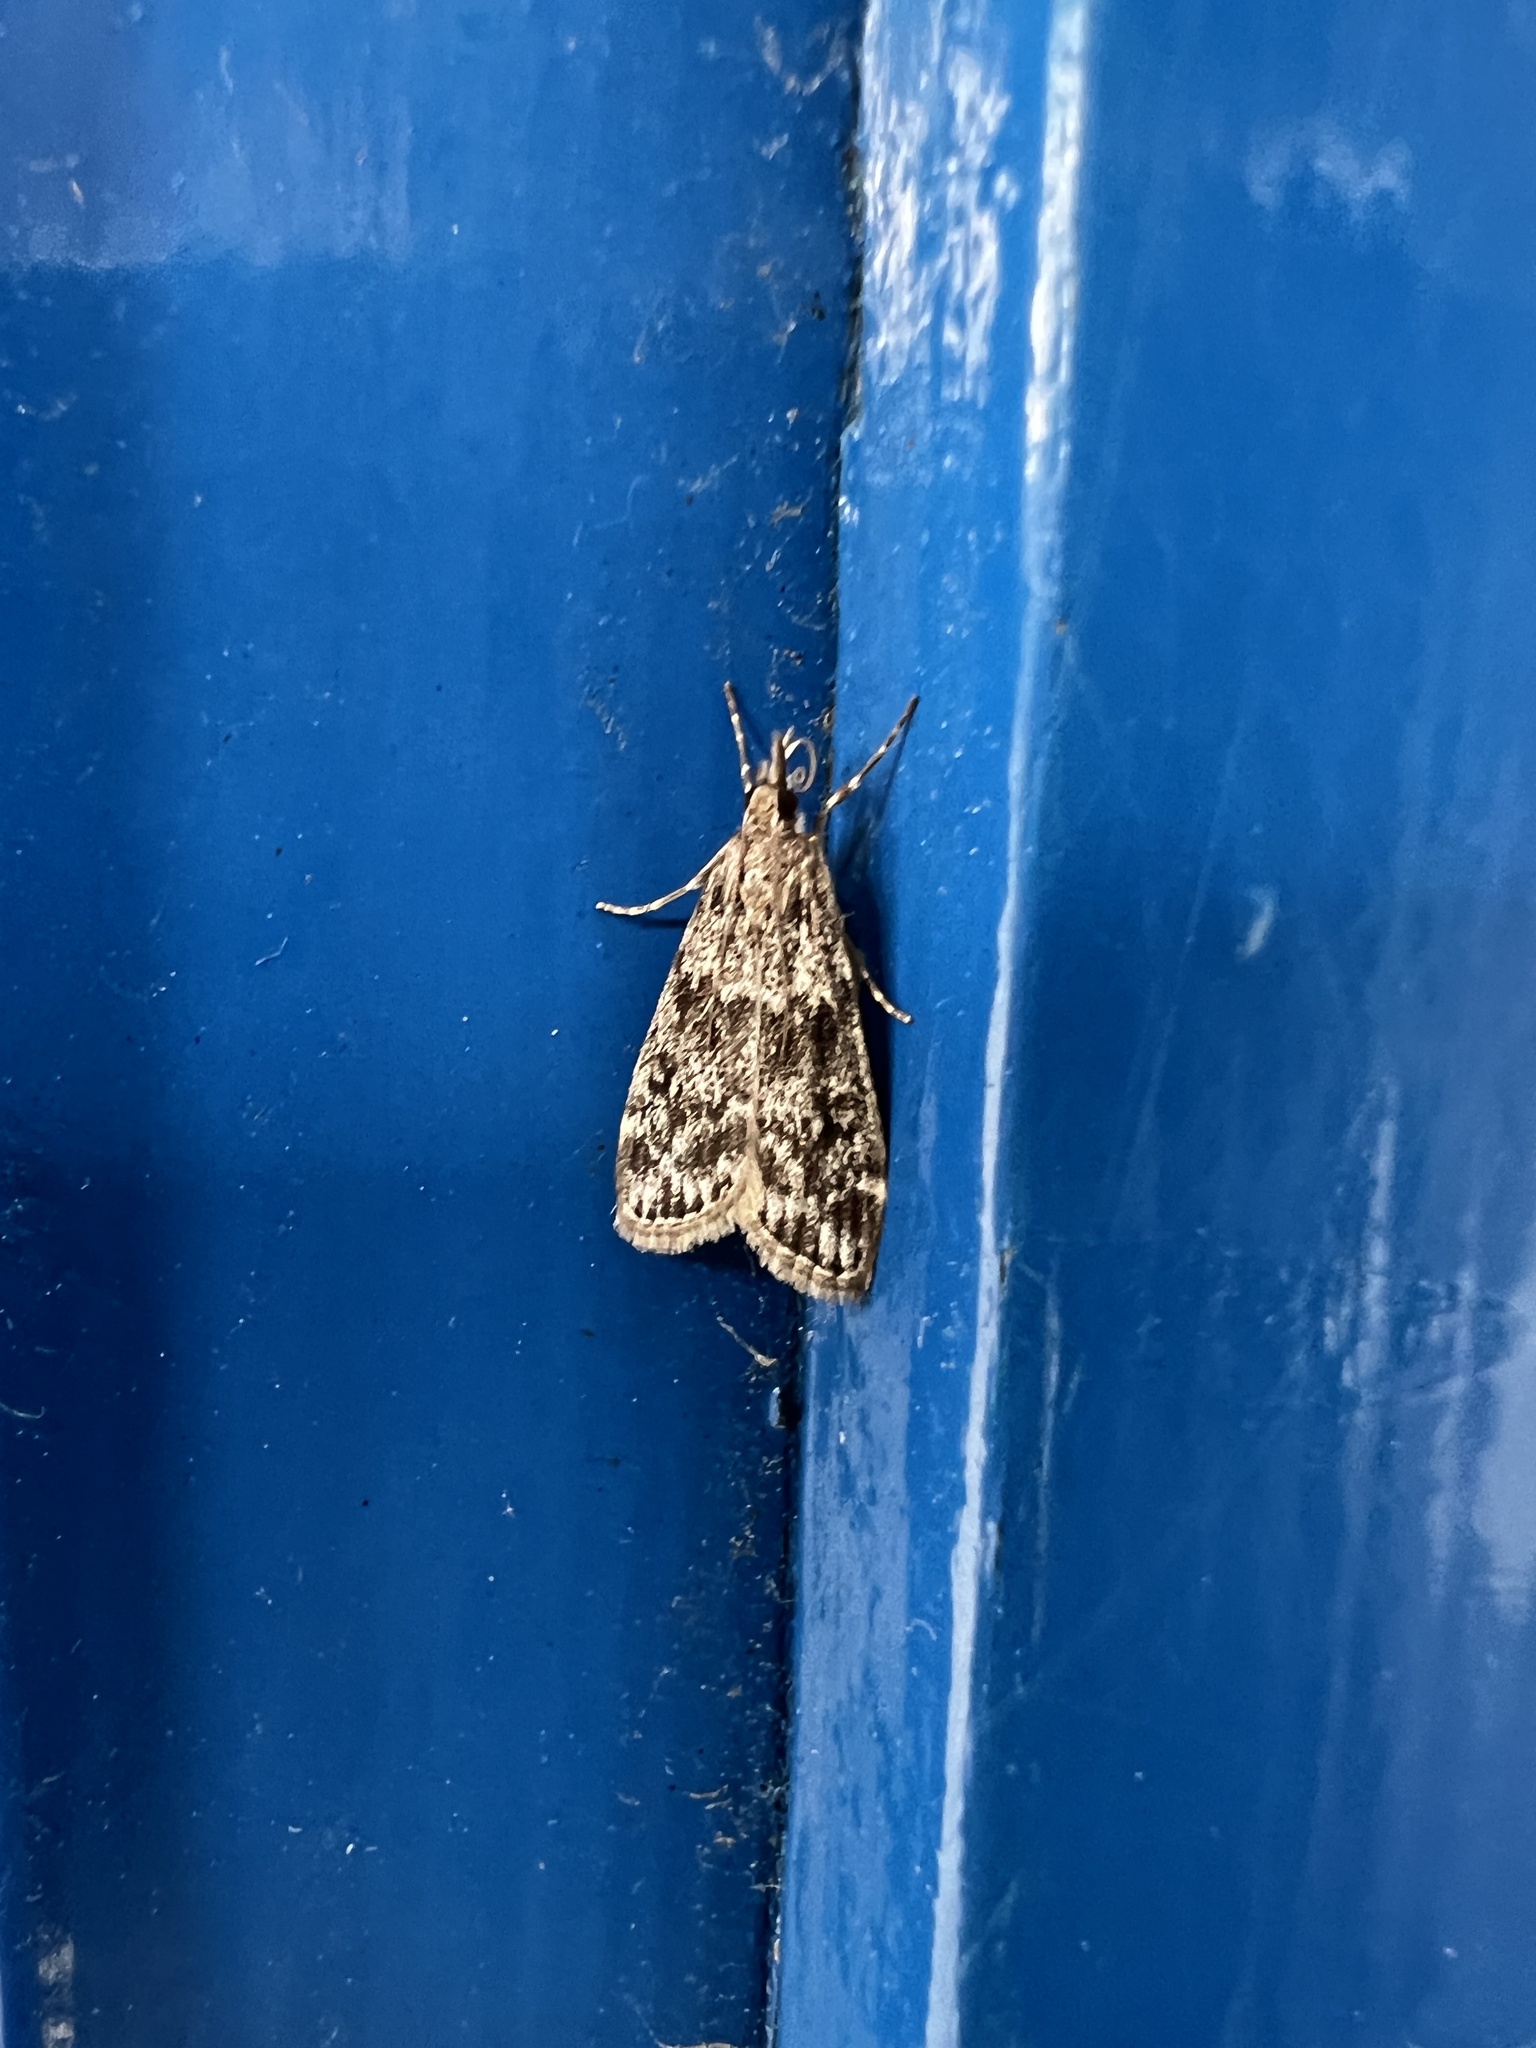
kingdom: Animalia
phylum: Arthropoda
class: Insecta
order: Lepidoptera
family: Crambidae
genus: Eudonia
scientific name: Eudonia truncicolella
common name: Ground-moss grey
